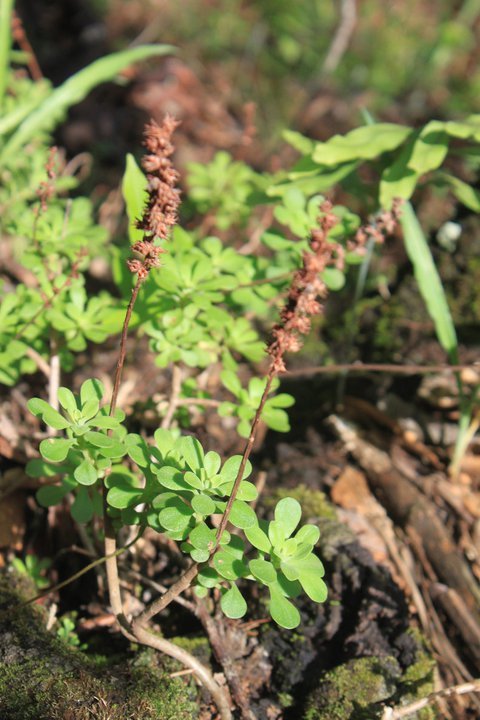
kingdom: Plantae
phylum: Tracheophyta
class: Magnoliopsida
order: Saxifragales
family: Crassulaceae
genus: Sedum
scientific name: Sedum oxypetalum
